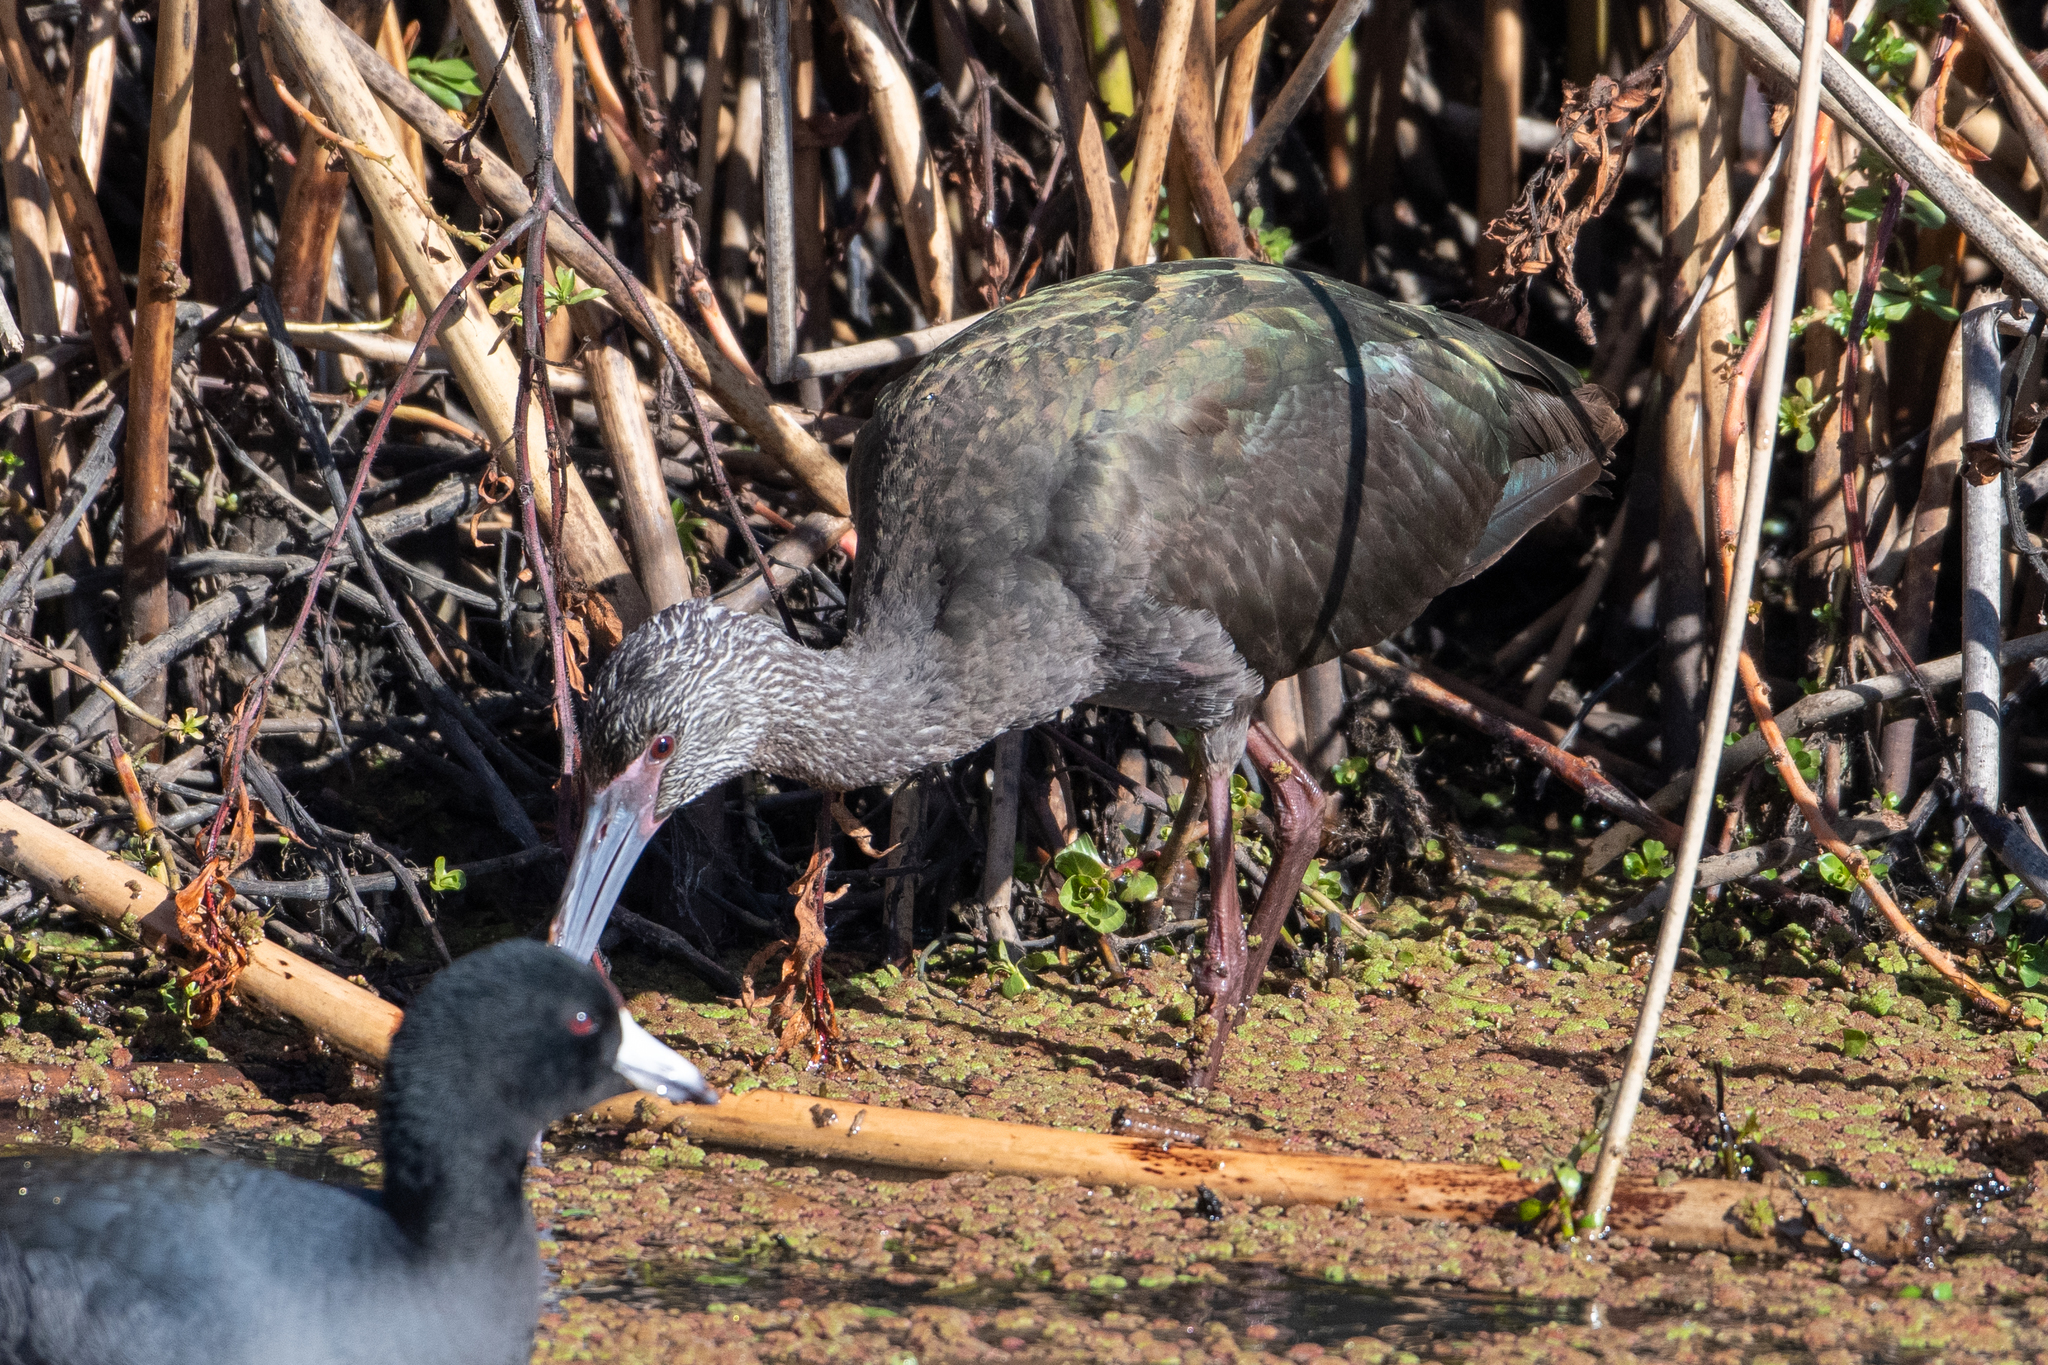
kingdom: Animalia
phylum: Chordata
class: Aves
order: Pelecaniformes
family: Threskiornithidae
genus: Plegadis
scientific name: Plegadis chihi
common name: White-faced ibis
